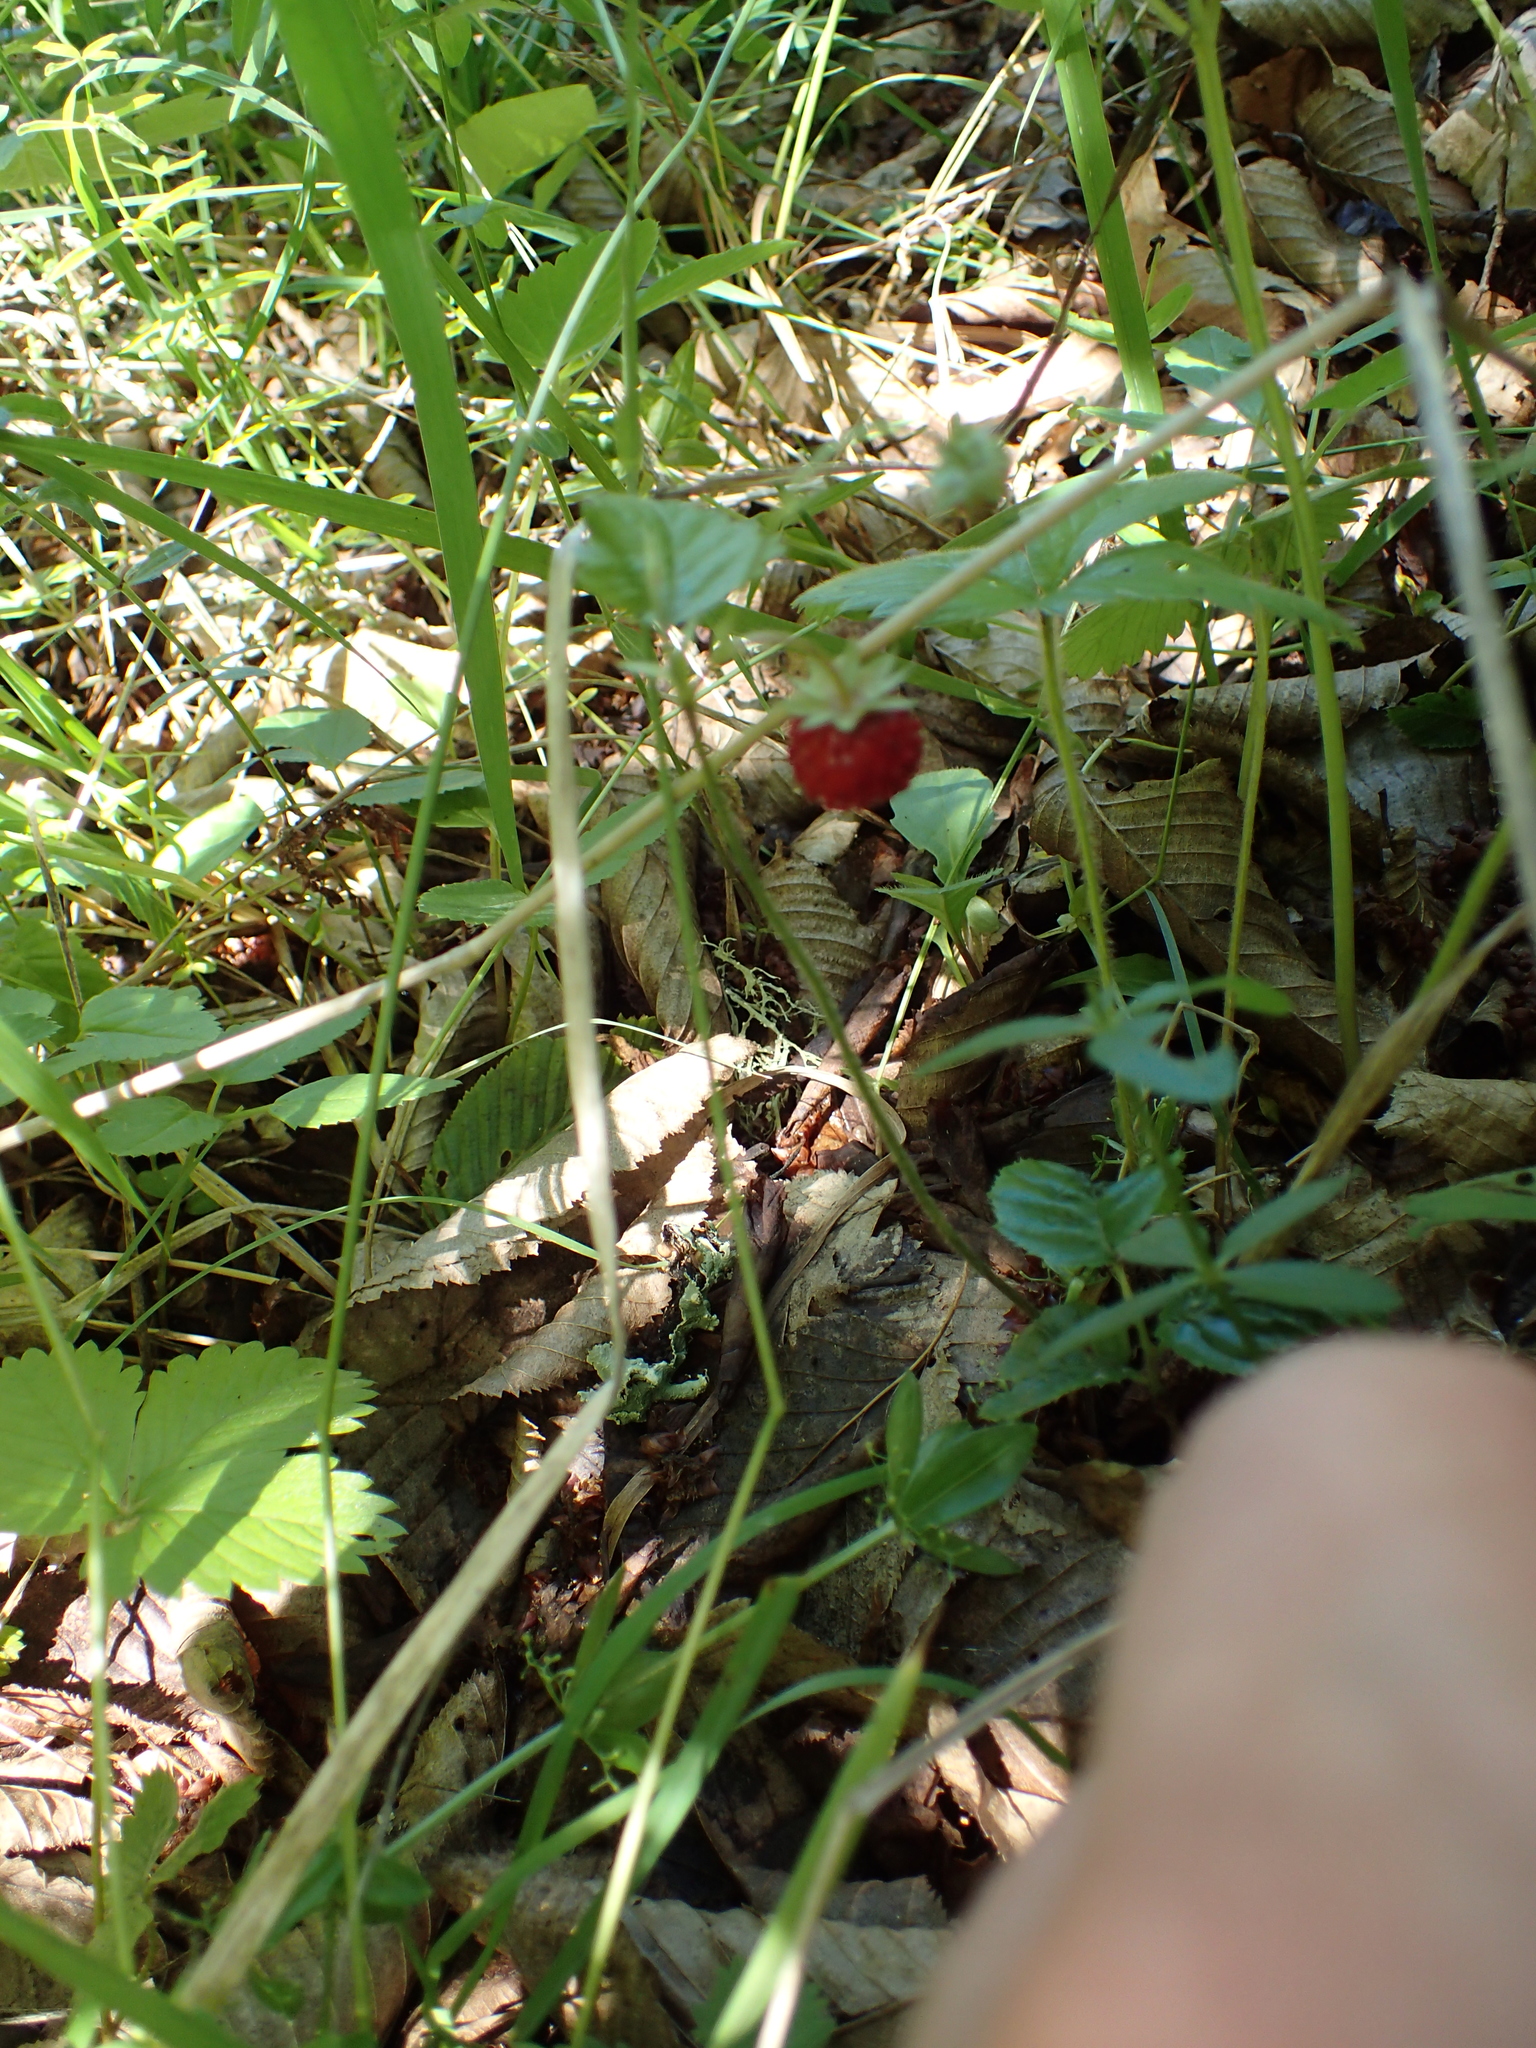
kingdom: Plantae
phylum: Tracheophyta
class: Magnoliopsida
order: Rosales
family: Rosaceae
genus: Potentilla
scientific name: Potentilla indica
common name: Yellow-flowered strawberry
